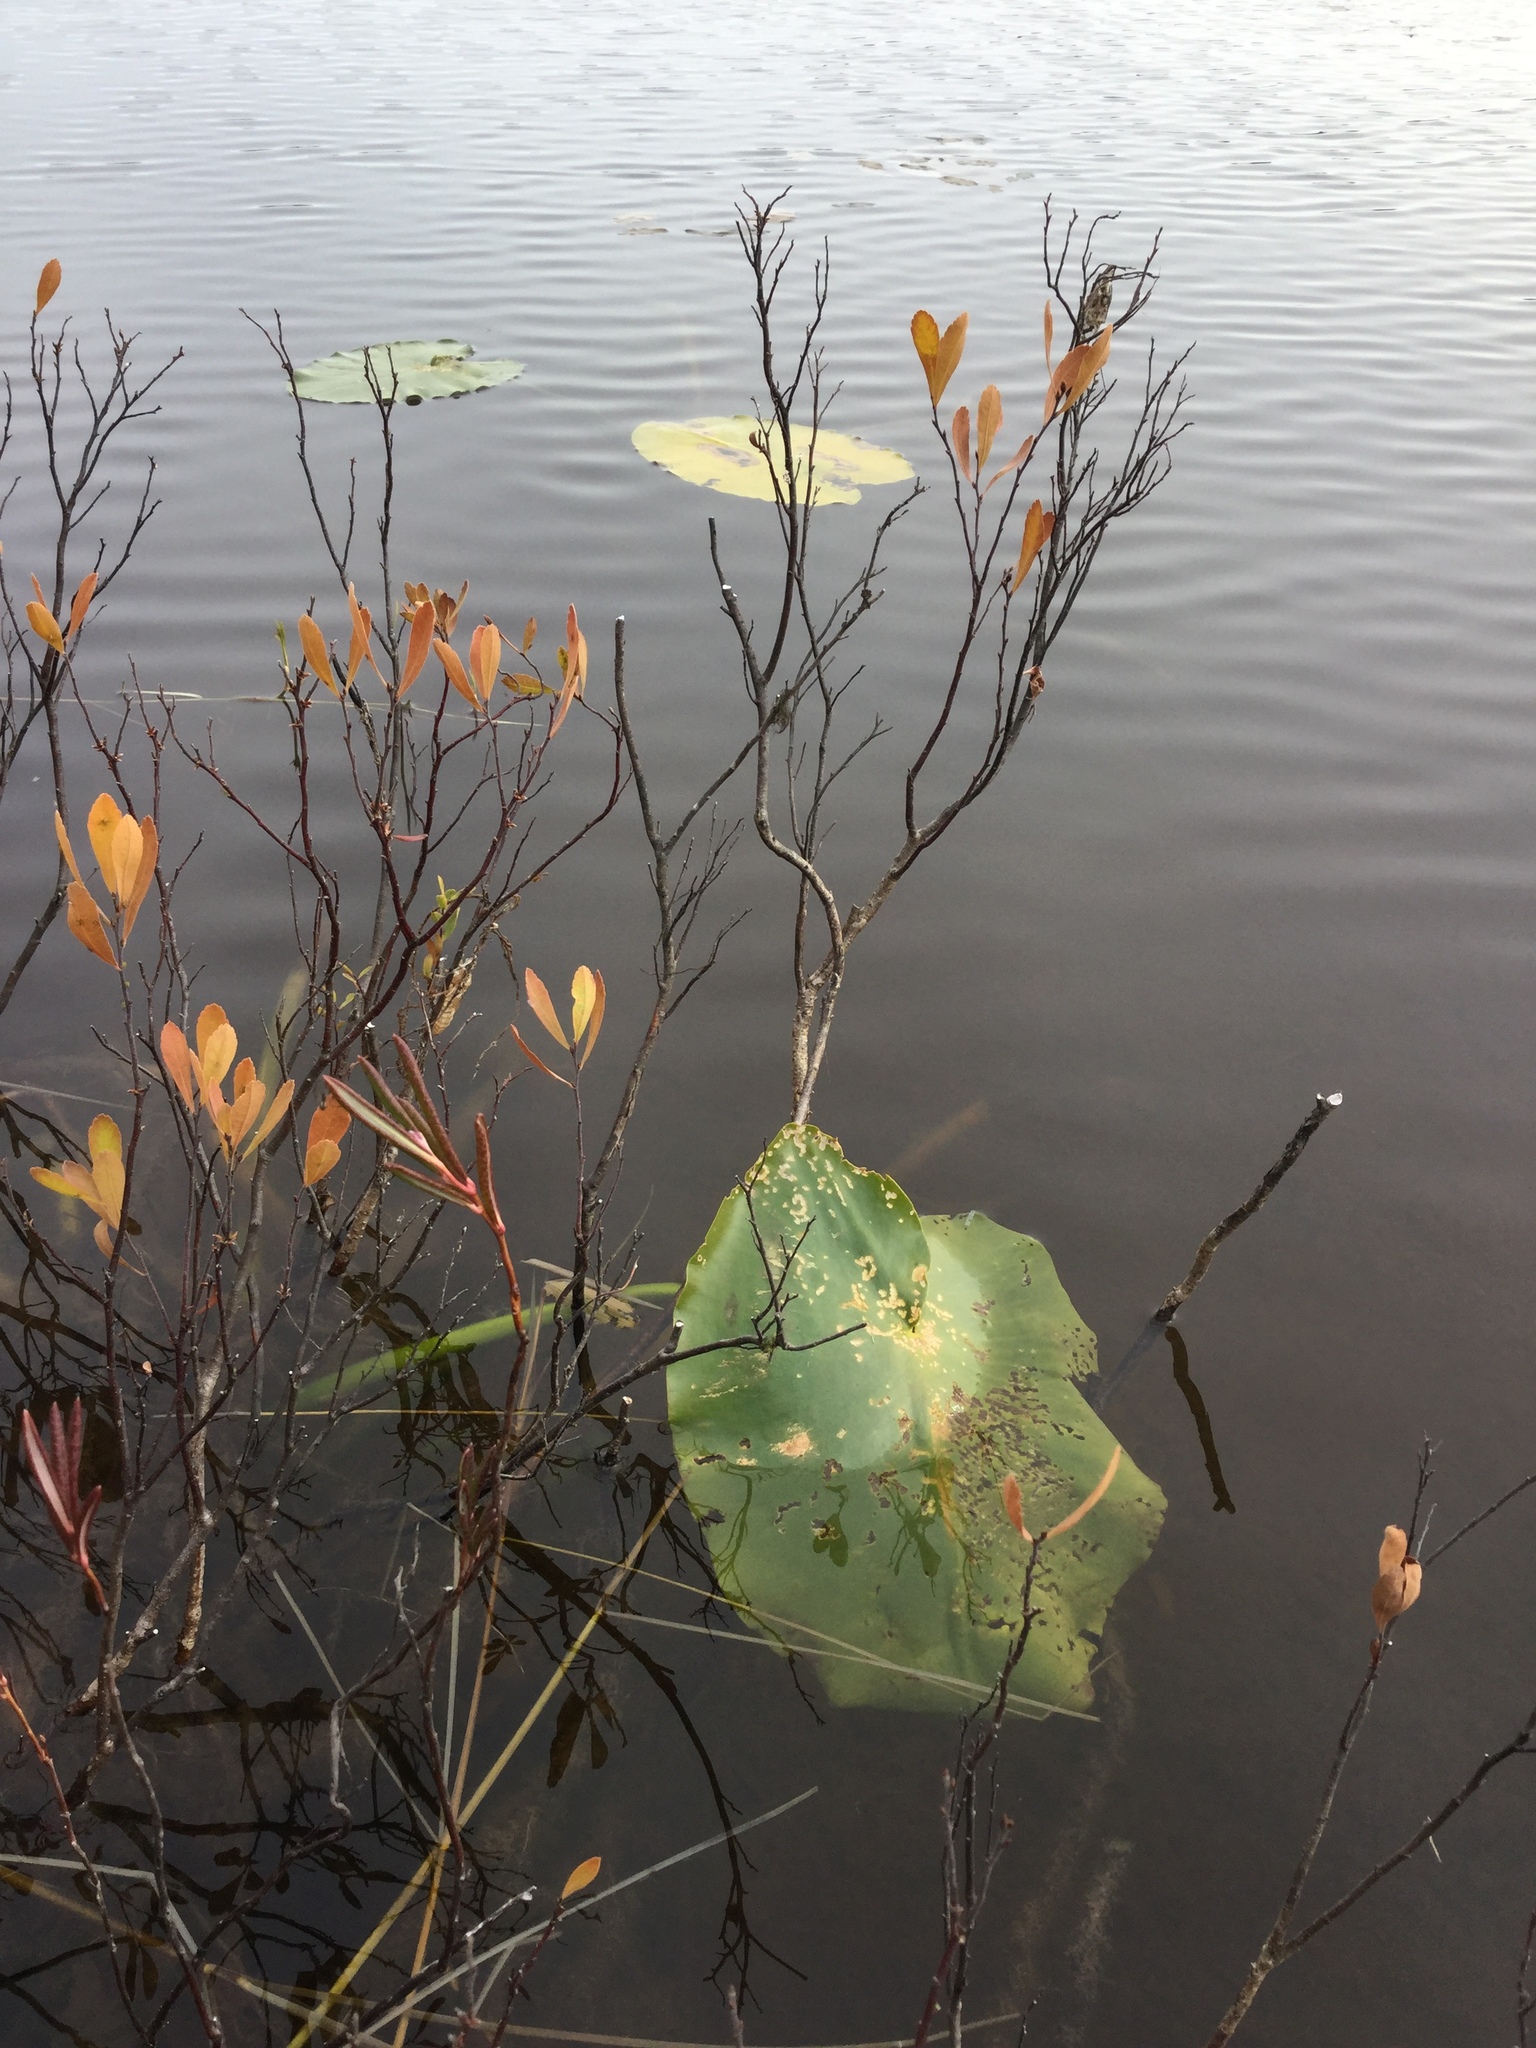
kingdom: Plantae
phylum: Tracheophyta
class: Magnoliopsida
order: Nymphaeales
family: Nymphaeaceae
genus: Nuphar
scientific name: Nuphar polysepala
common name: Rocky mountain cow-lily
